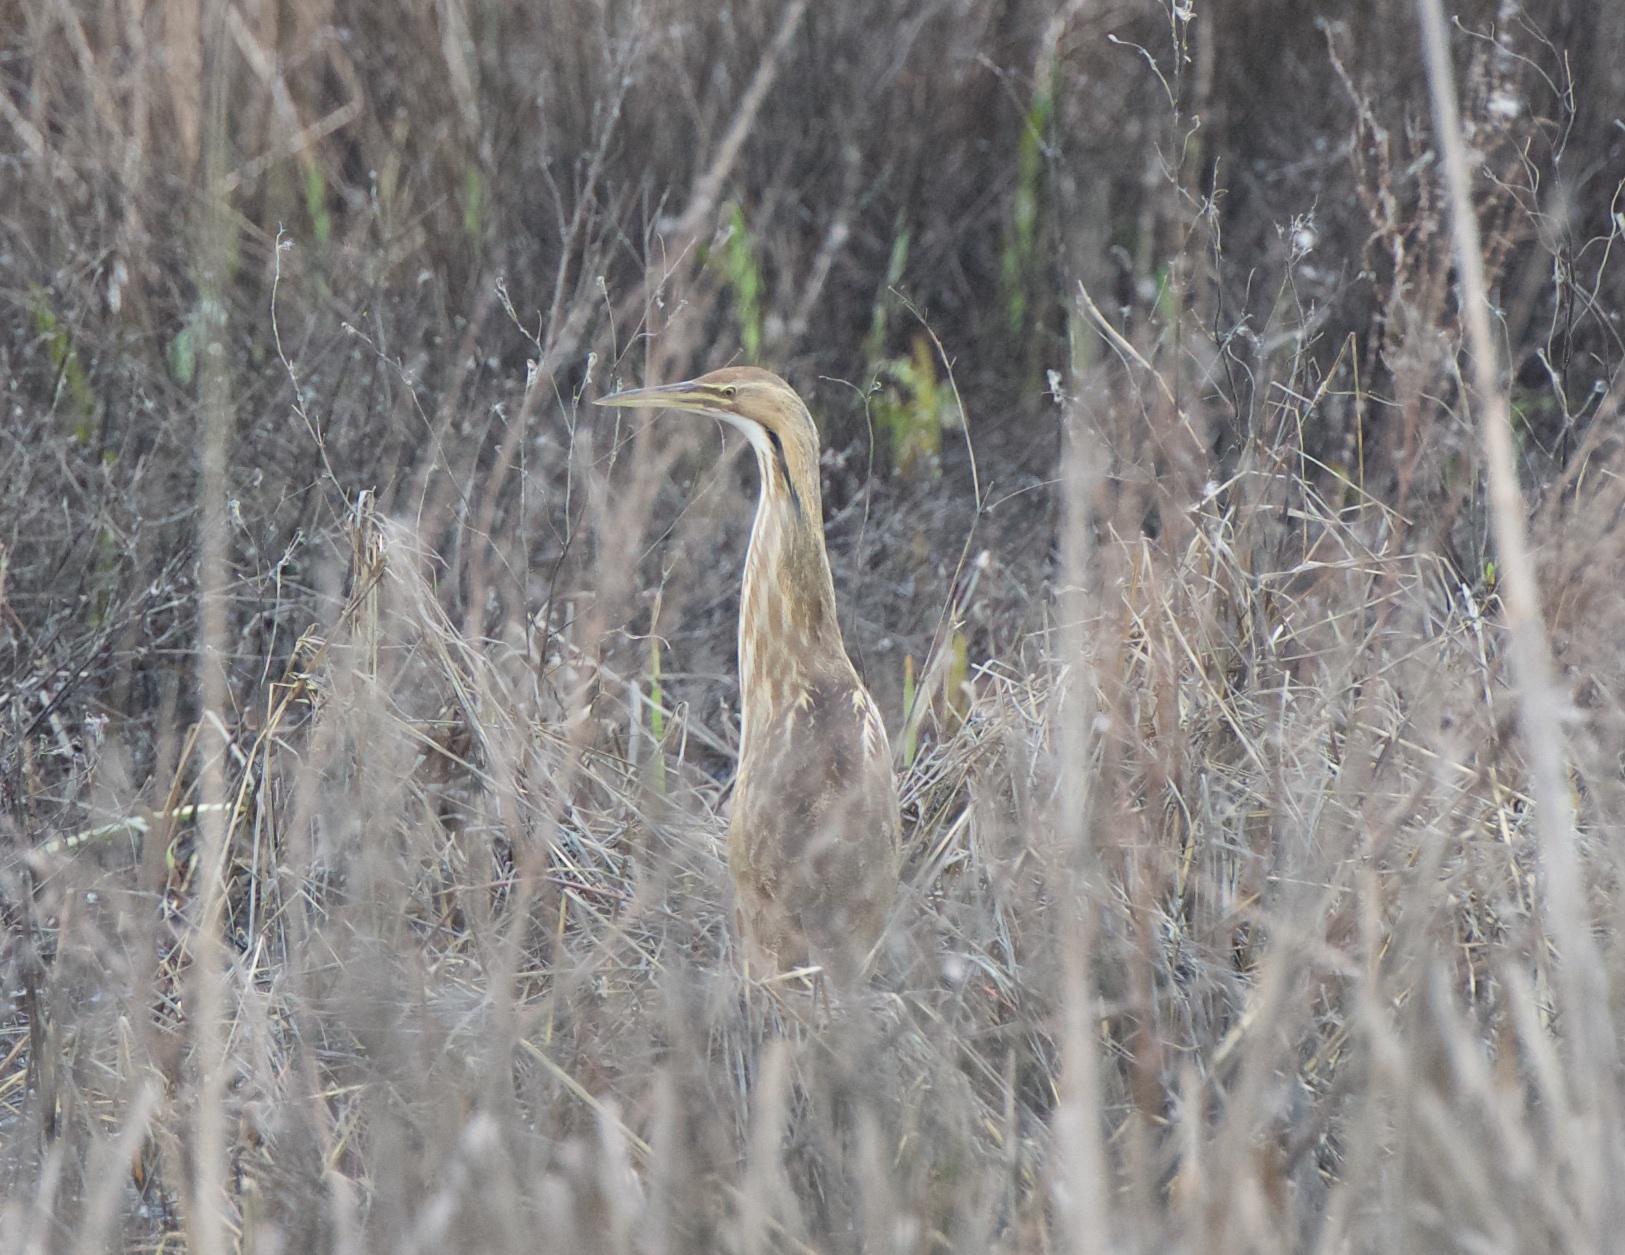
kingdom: Animalia
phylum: Chordata
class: Aves
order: Pelecaniformes
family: Ardeidae
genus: Botaurus
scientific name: Botaurus lentiginosus
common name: American bittern
